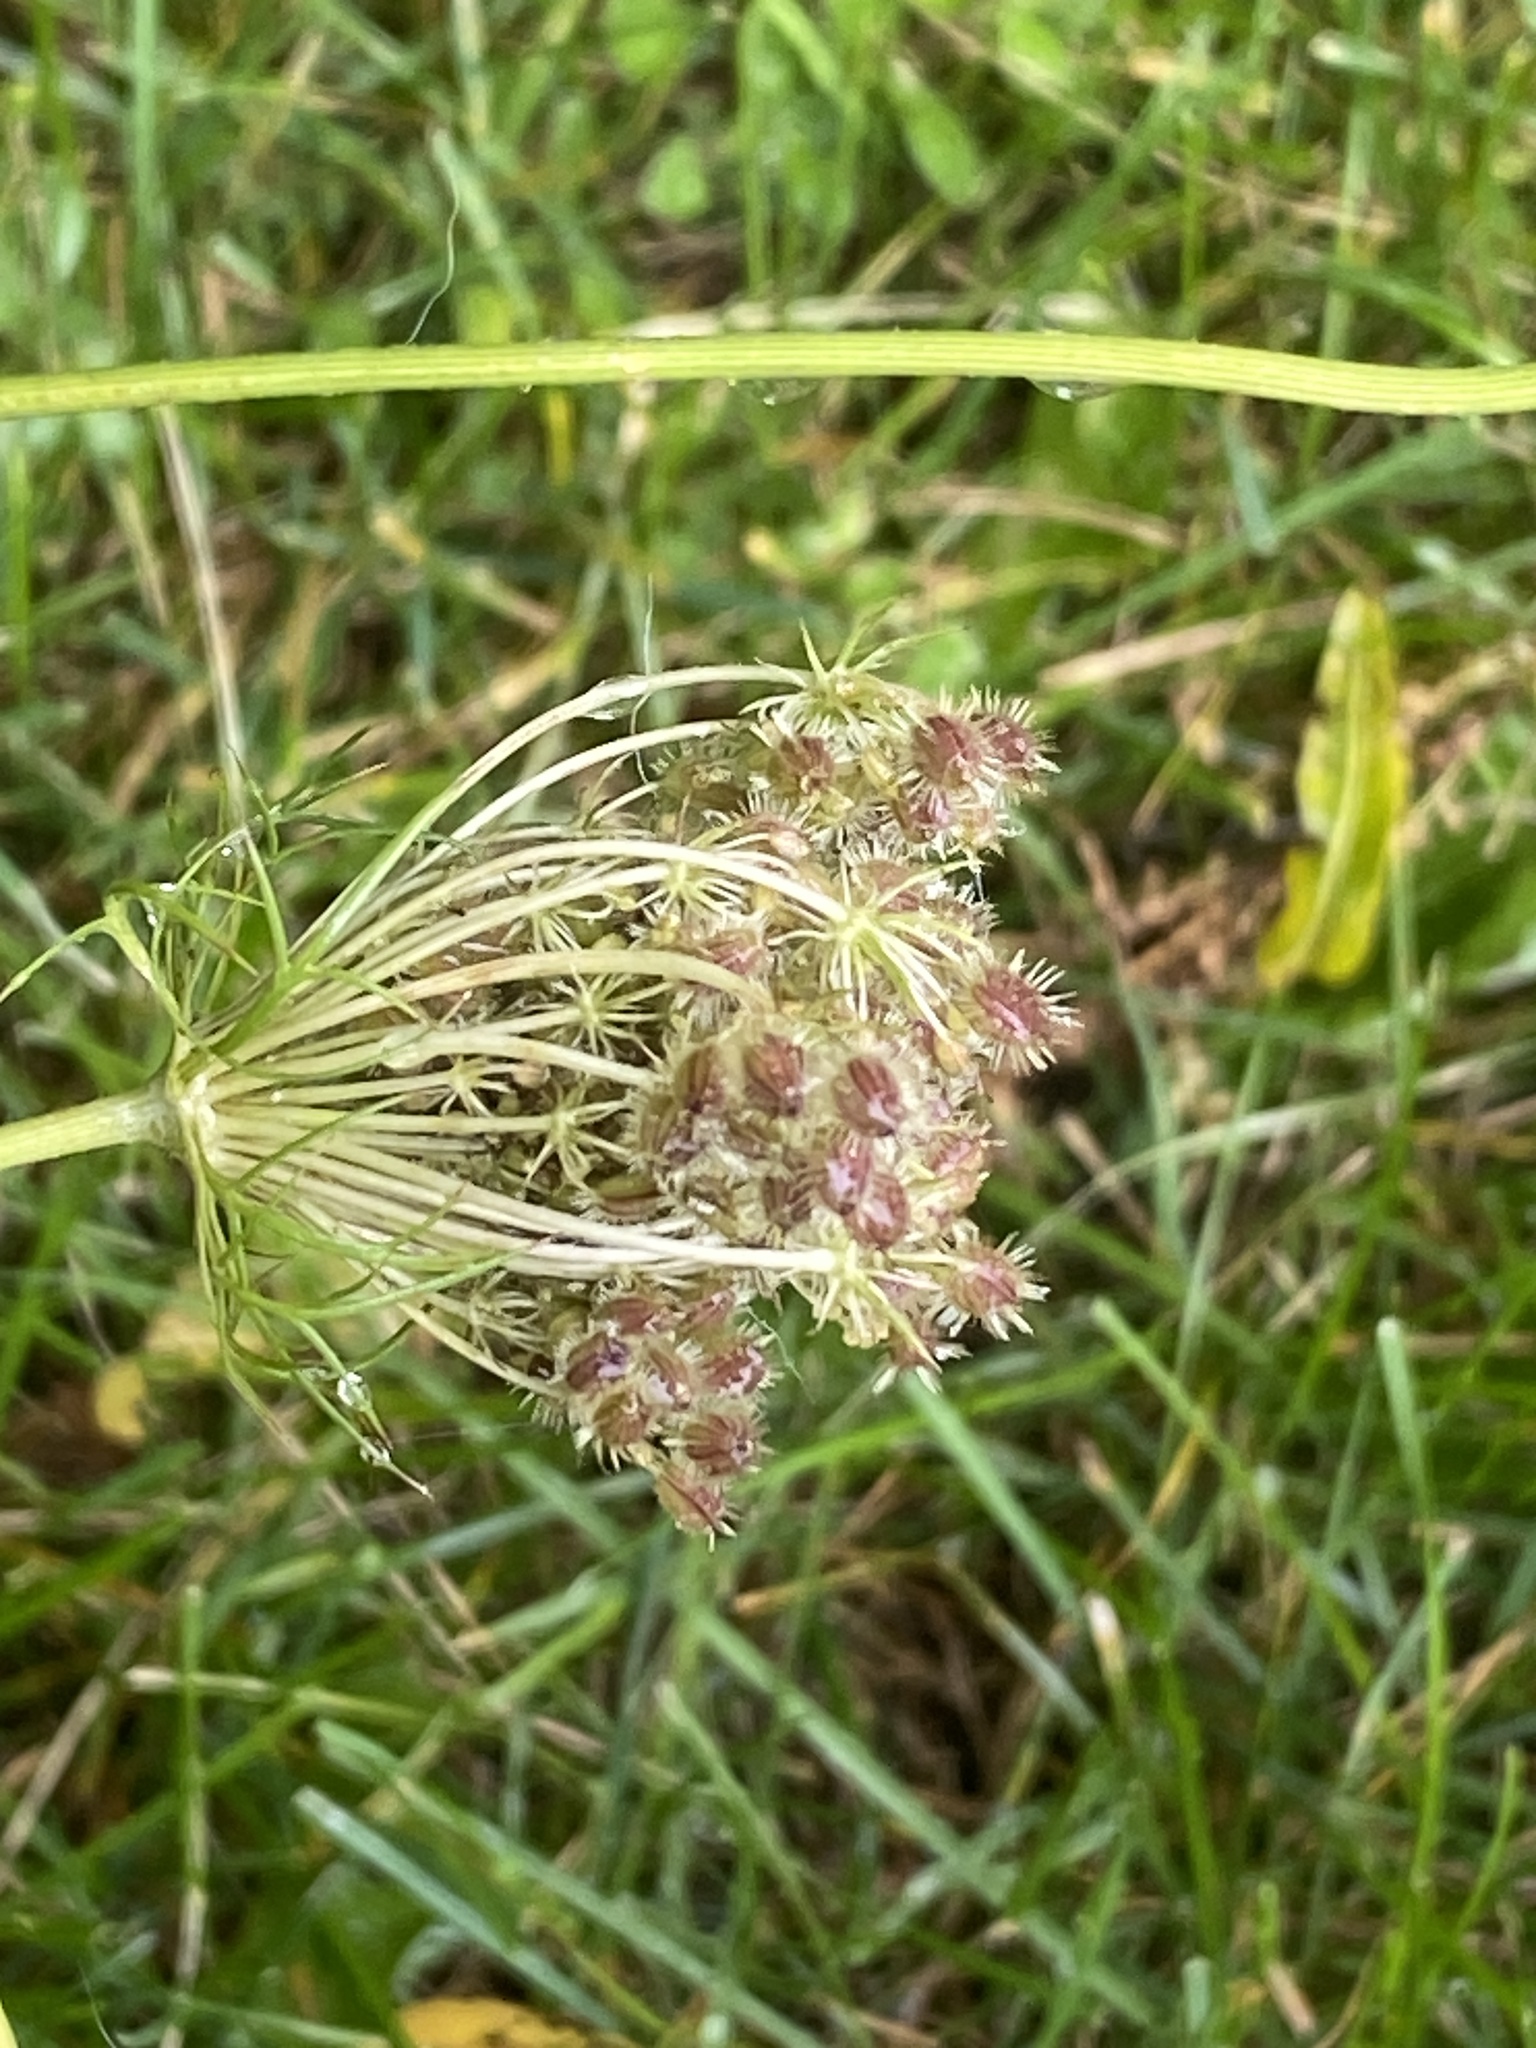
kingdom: Plantae
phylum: Tracheophyta
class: Magnoliopsida
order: Apiales
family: Apiaceae
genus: Daucus
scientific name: Daucus carota
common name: Wild carrot
